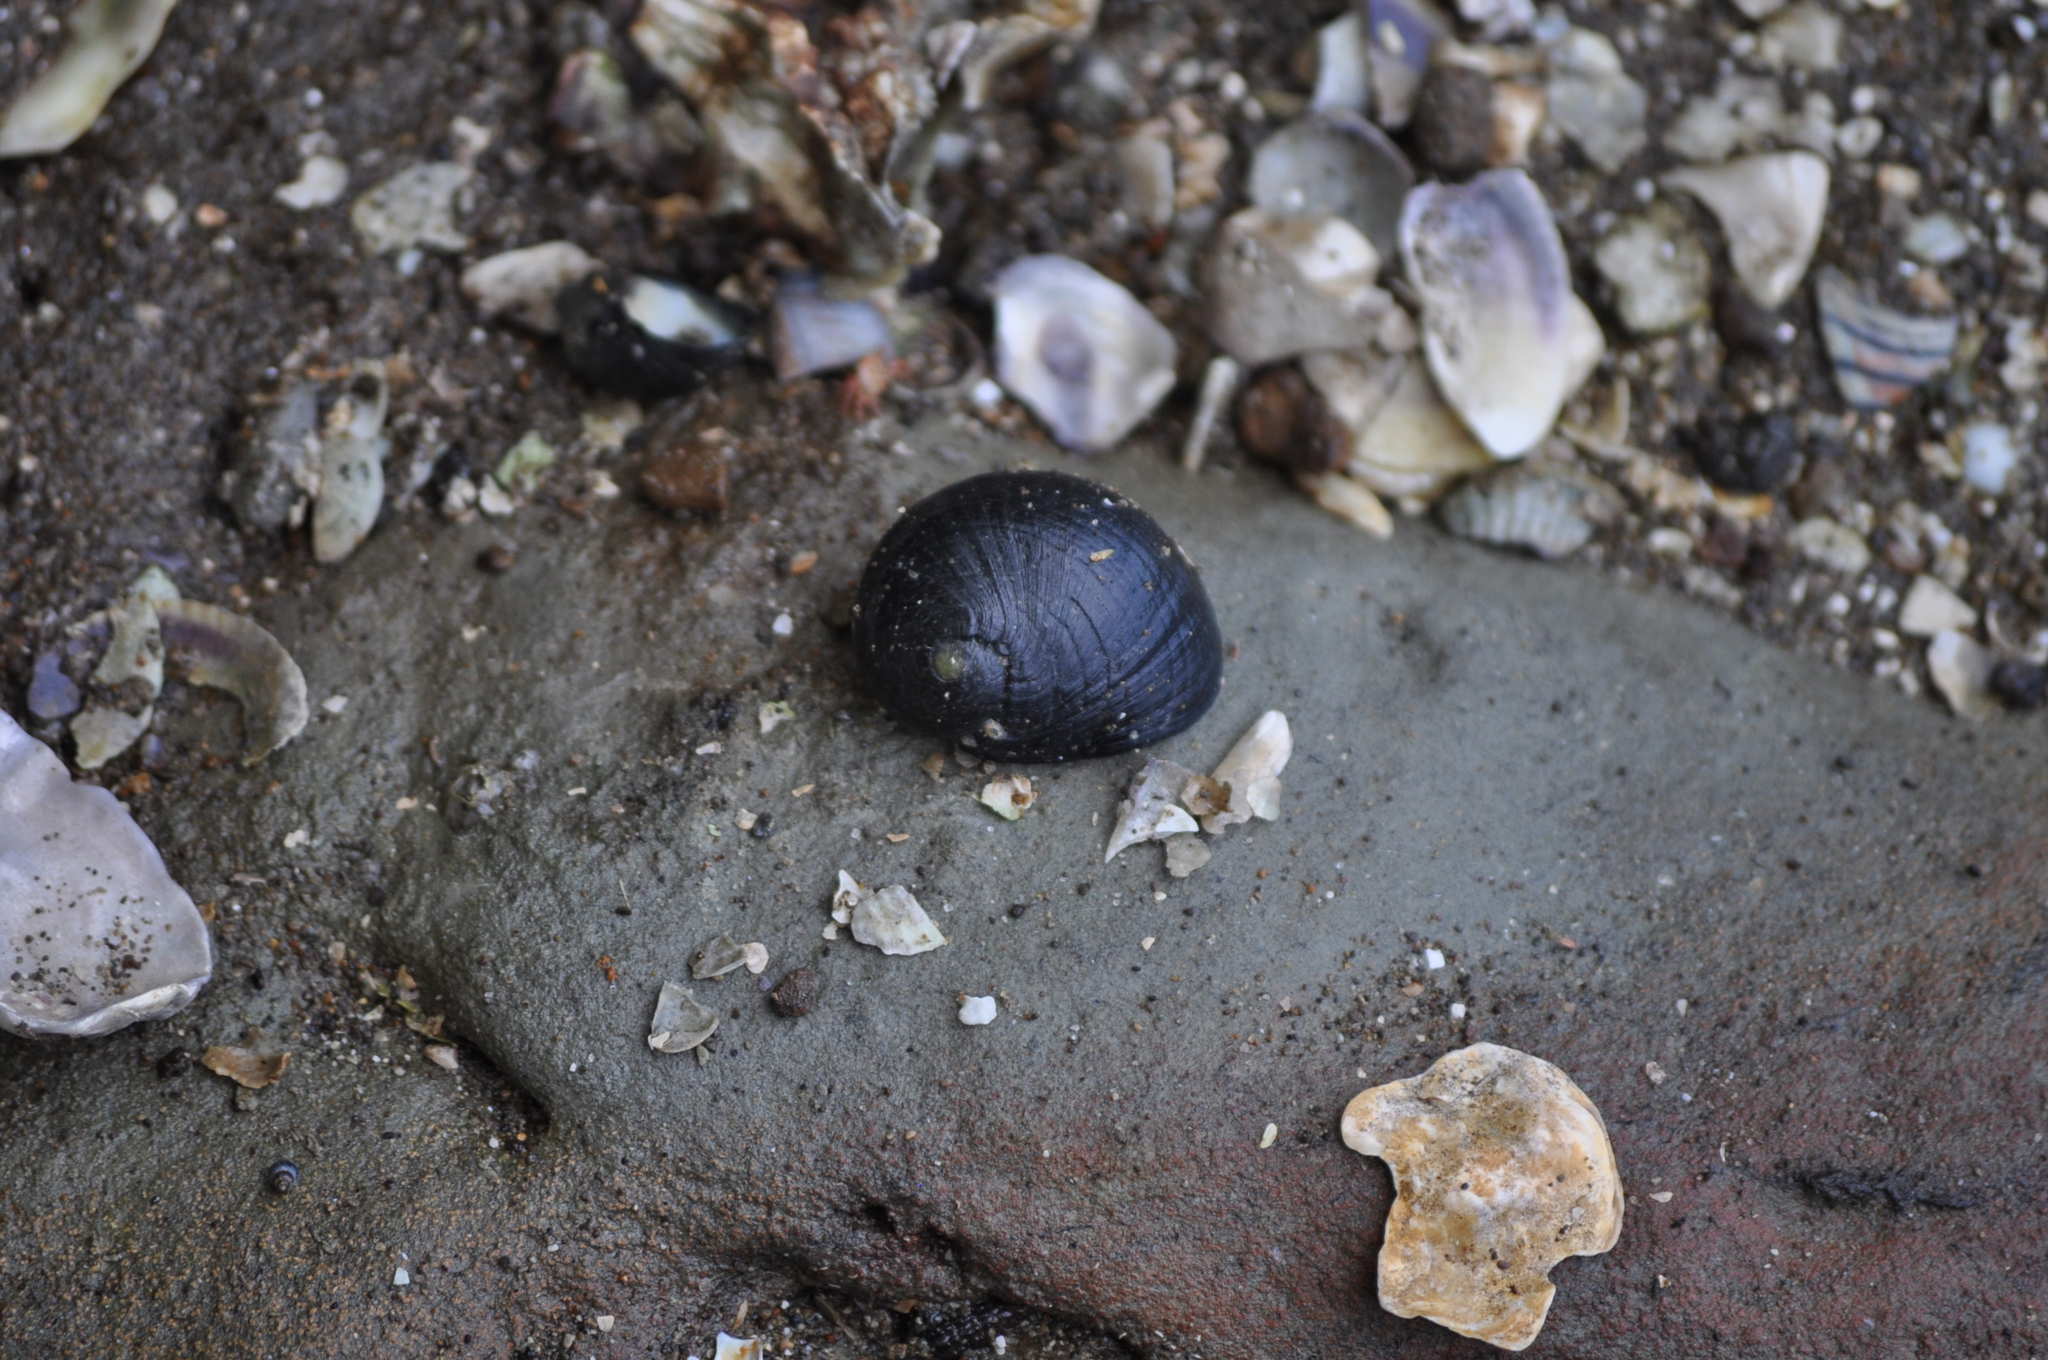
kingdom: Animalia
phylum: Mollusca
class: Gastropoda
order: Cycloneritida
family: Neritidae
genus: Nerita
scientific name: Nerita melanotragus
